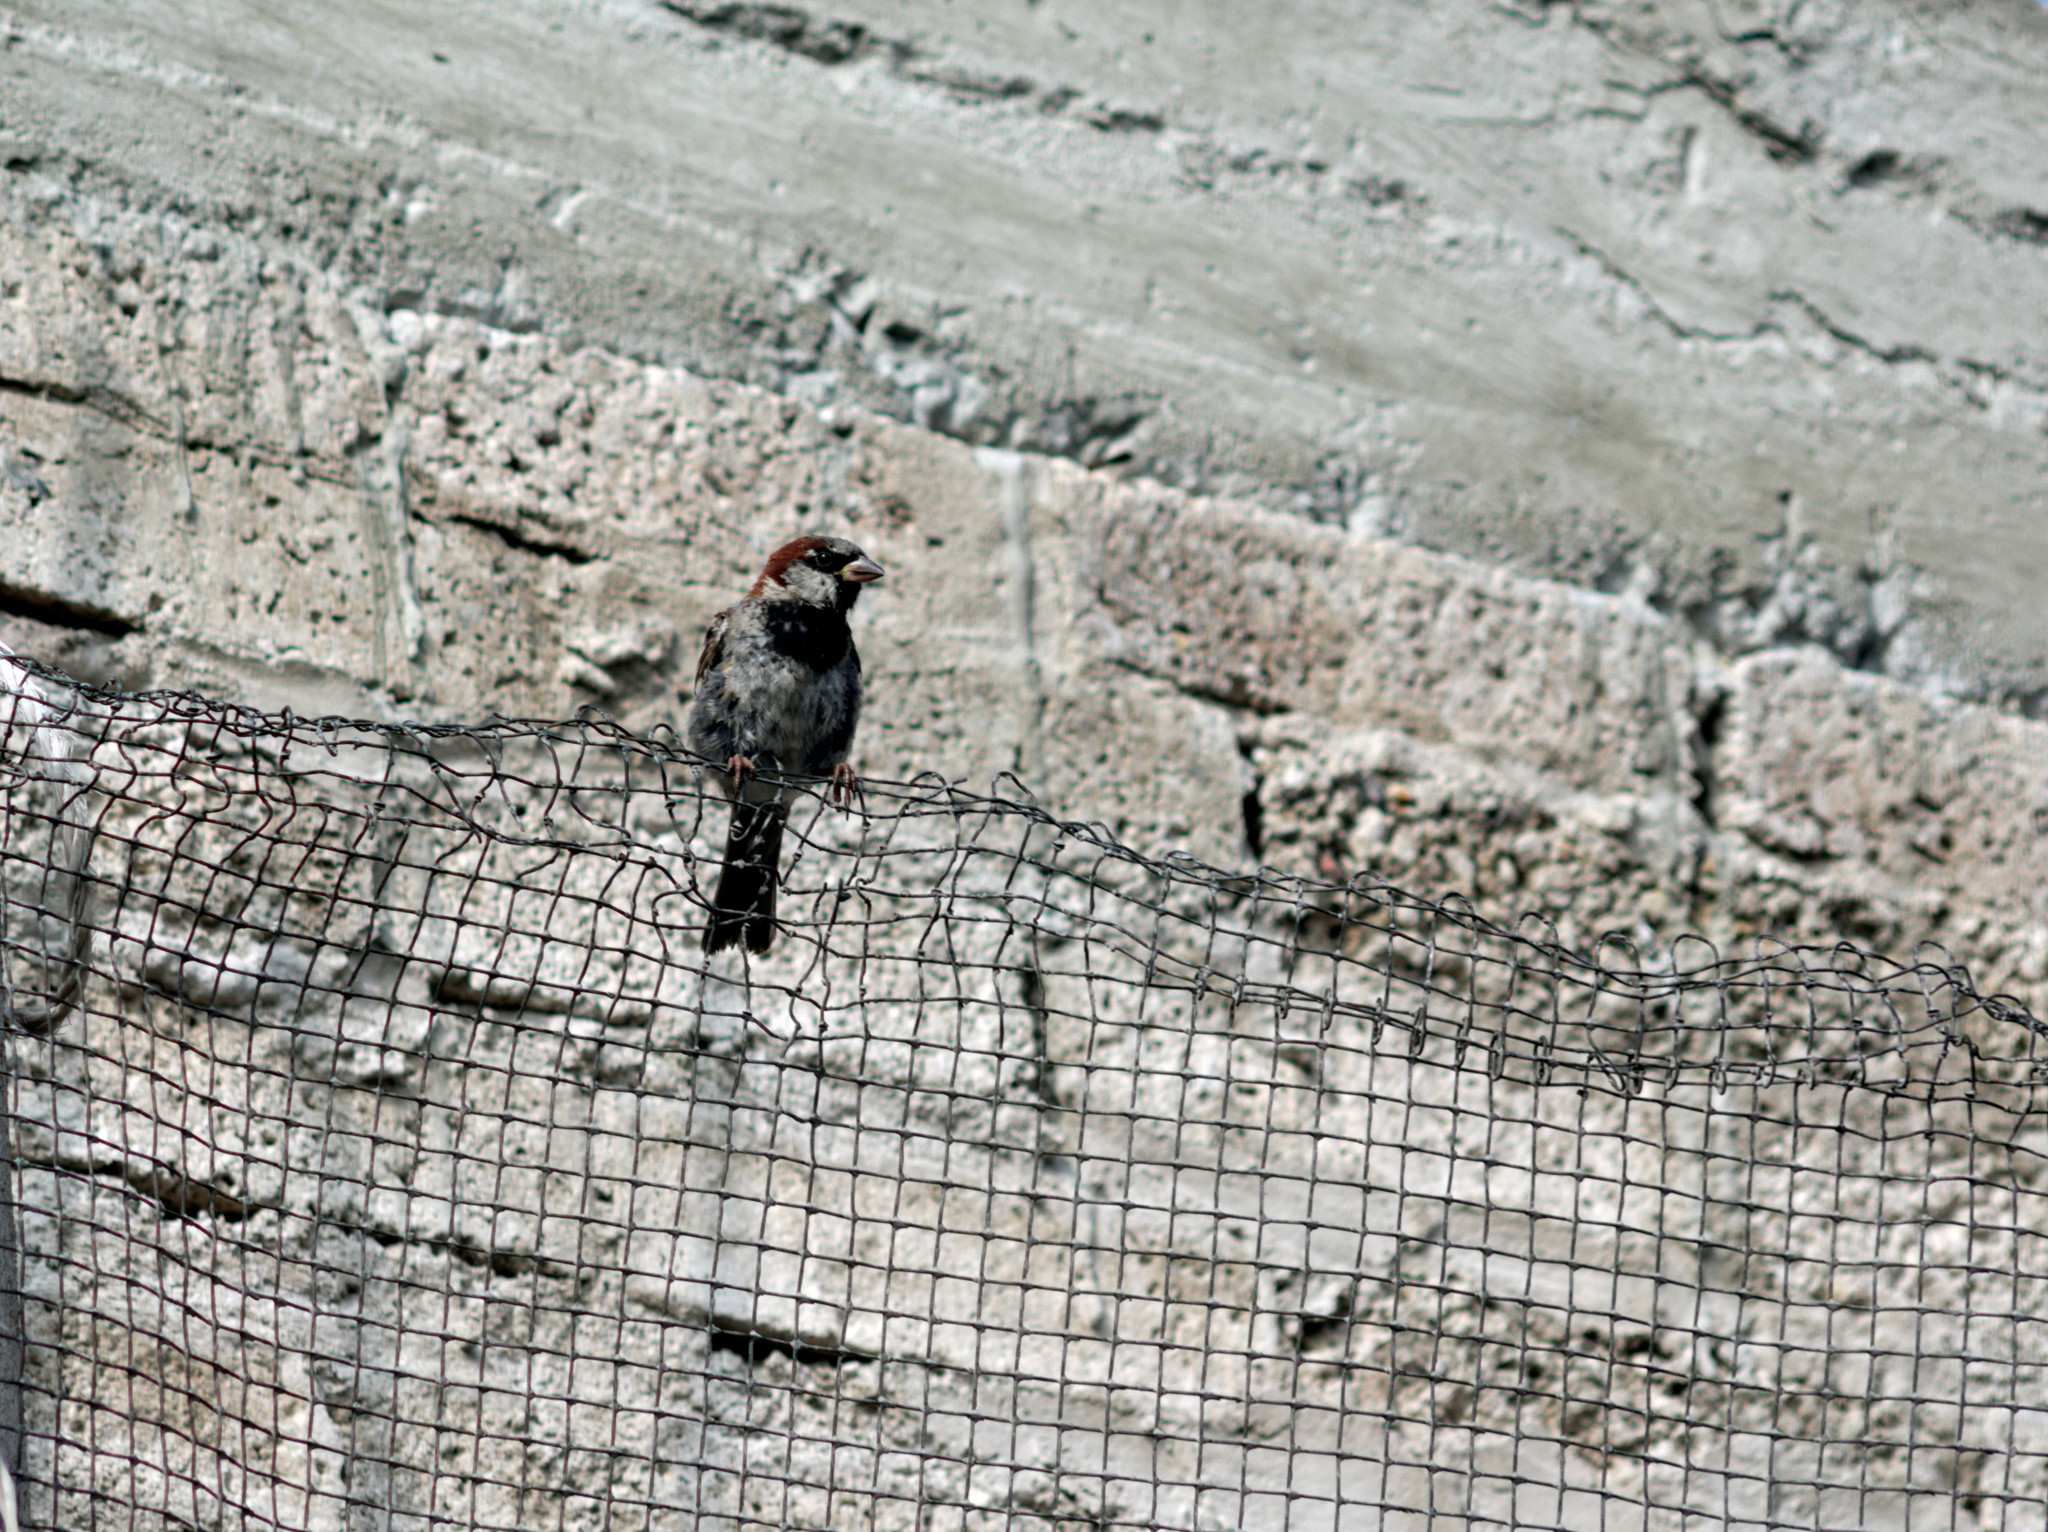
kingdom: Animalia
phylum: Chordata
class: Aves
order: Passeriformes
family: Passeridae
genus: Passer
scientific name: Passer domesticus
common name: House sparrow
